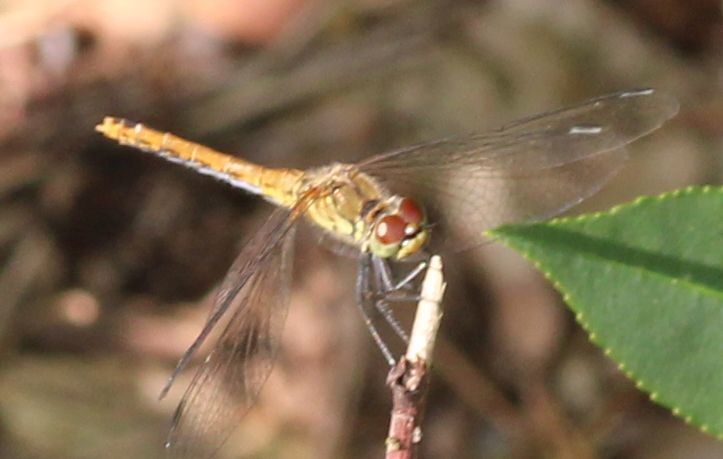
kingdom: Animalia
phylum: Arthropoda
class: Insecta
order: Odonata
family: Libellulidae
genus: Sympetrum
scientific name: Sympetrum sanguineum
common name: Ruddy darter
